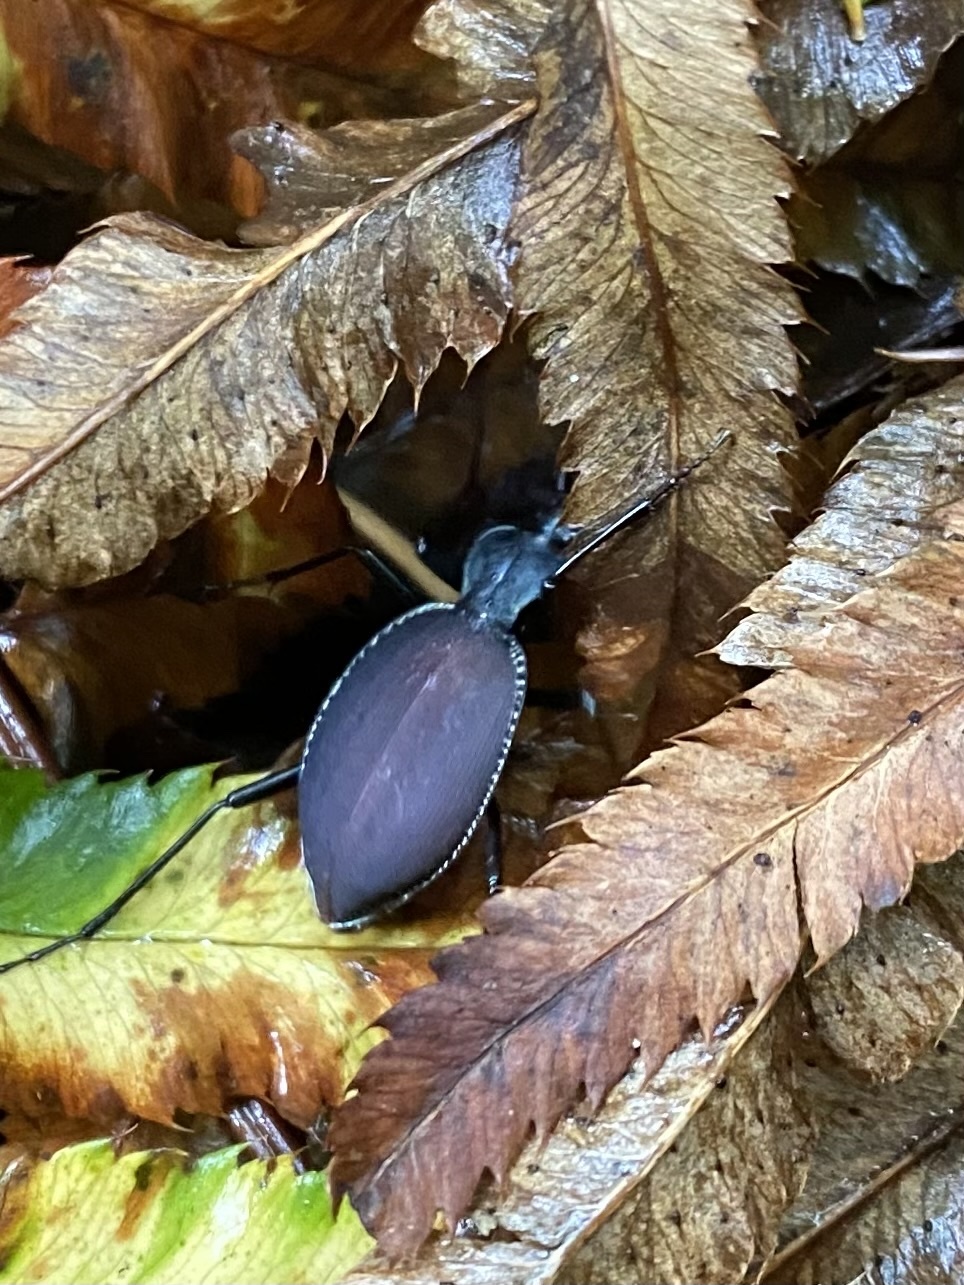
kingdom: Animalia
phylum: Arthropoda
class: Insecta
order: Coleoptera
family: Carabidae
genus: Scaphinotus
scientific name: Scaphinotus angusticollis
